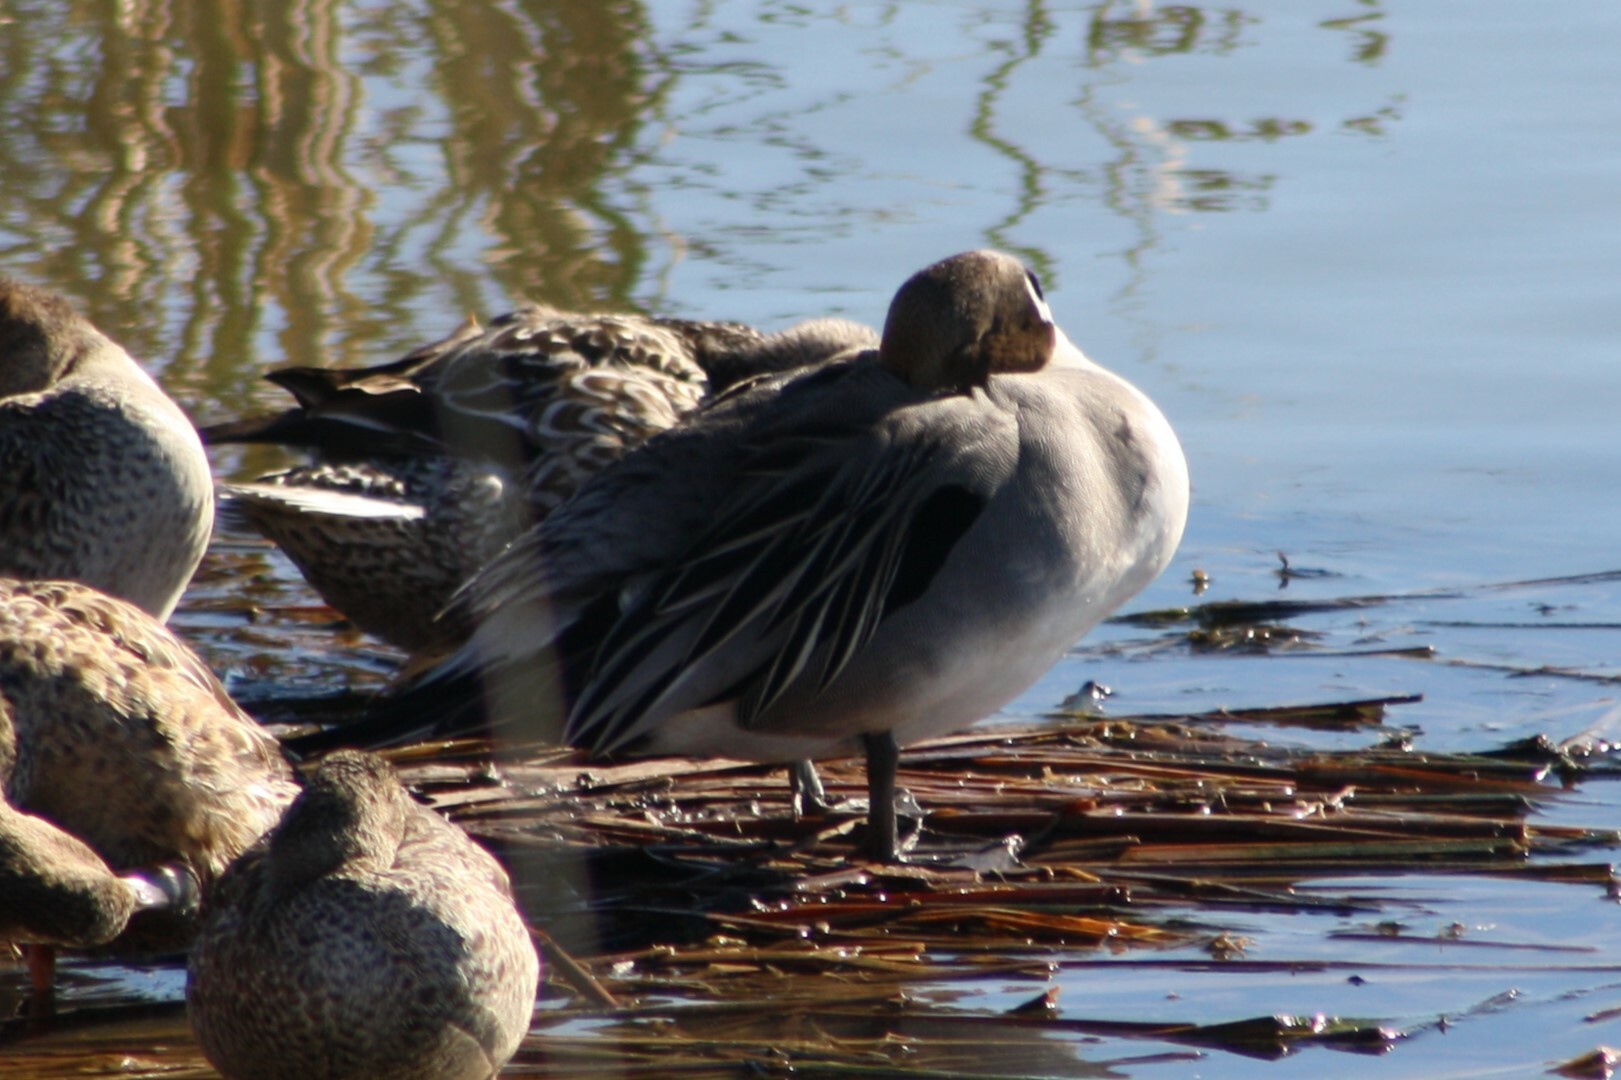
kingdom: Animalia
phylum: Chordata
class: Aves
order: Anseriformes
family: Anatidae
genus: Anas
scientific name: Anas acuta
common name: Northern pintail
